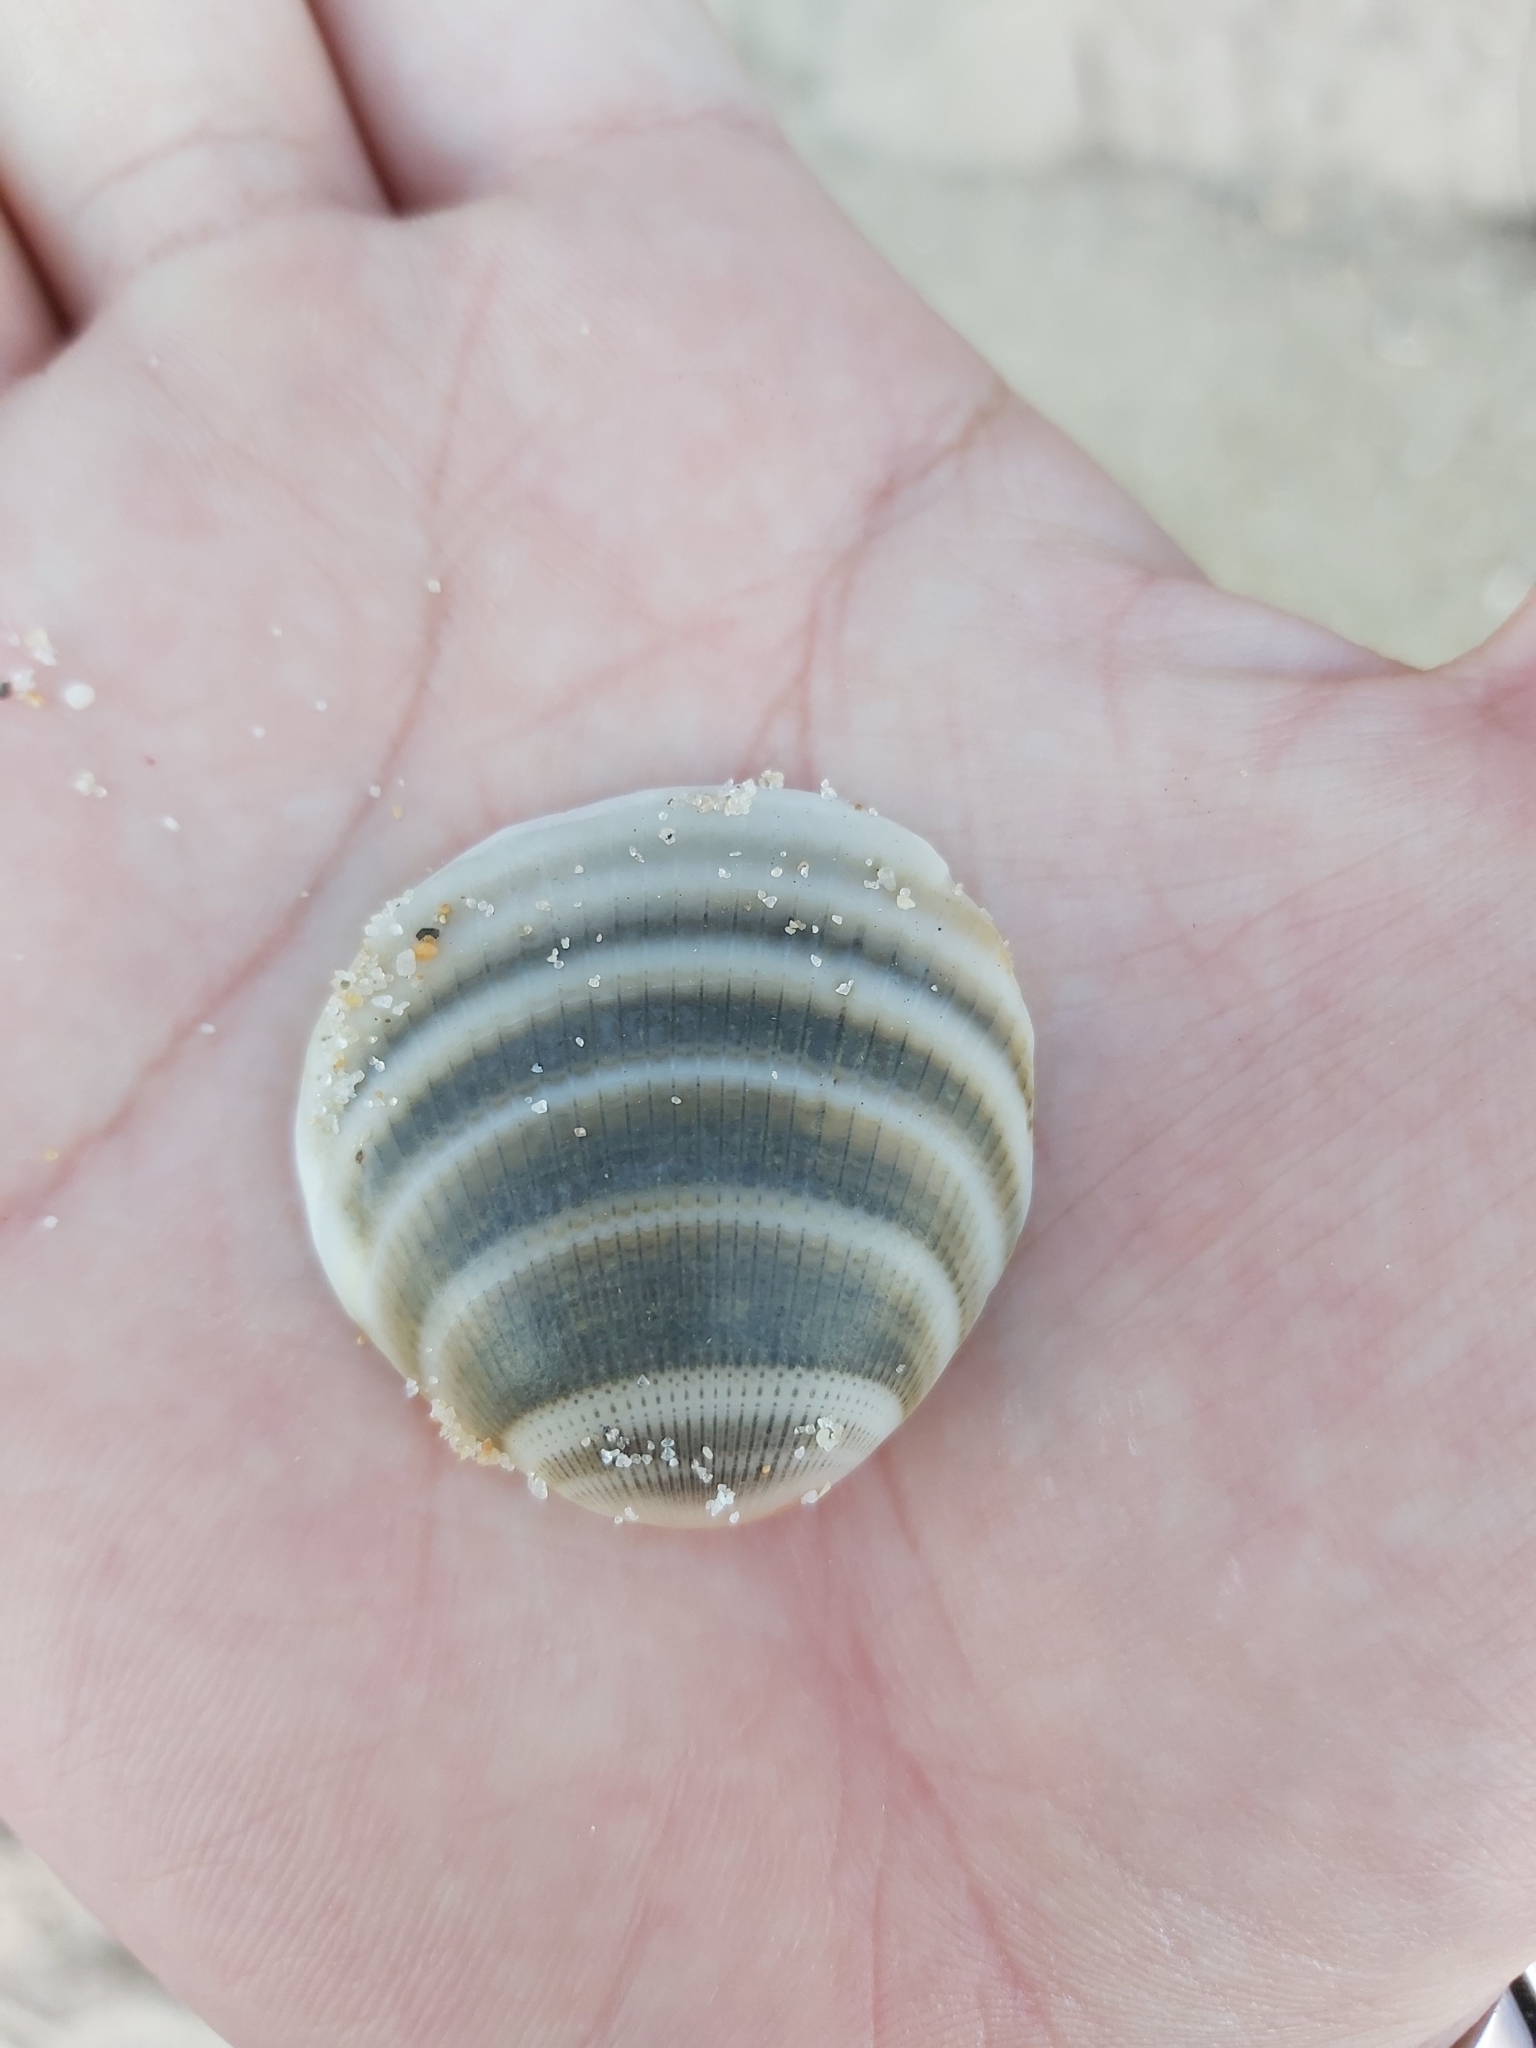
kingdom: Animalia
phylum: Mollusca
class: Bivalvia
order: Arcida
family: Glycymerididae
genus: Glycymeris
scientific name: Glycymeris grayana
